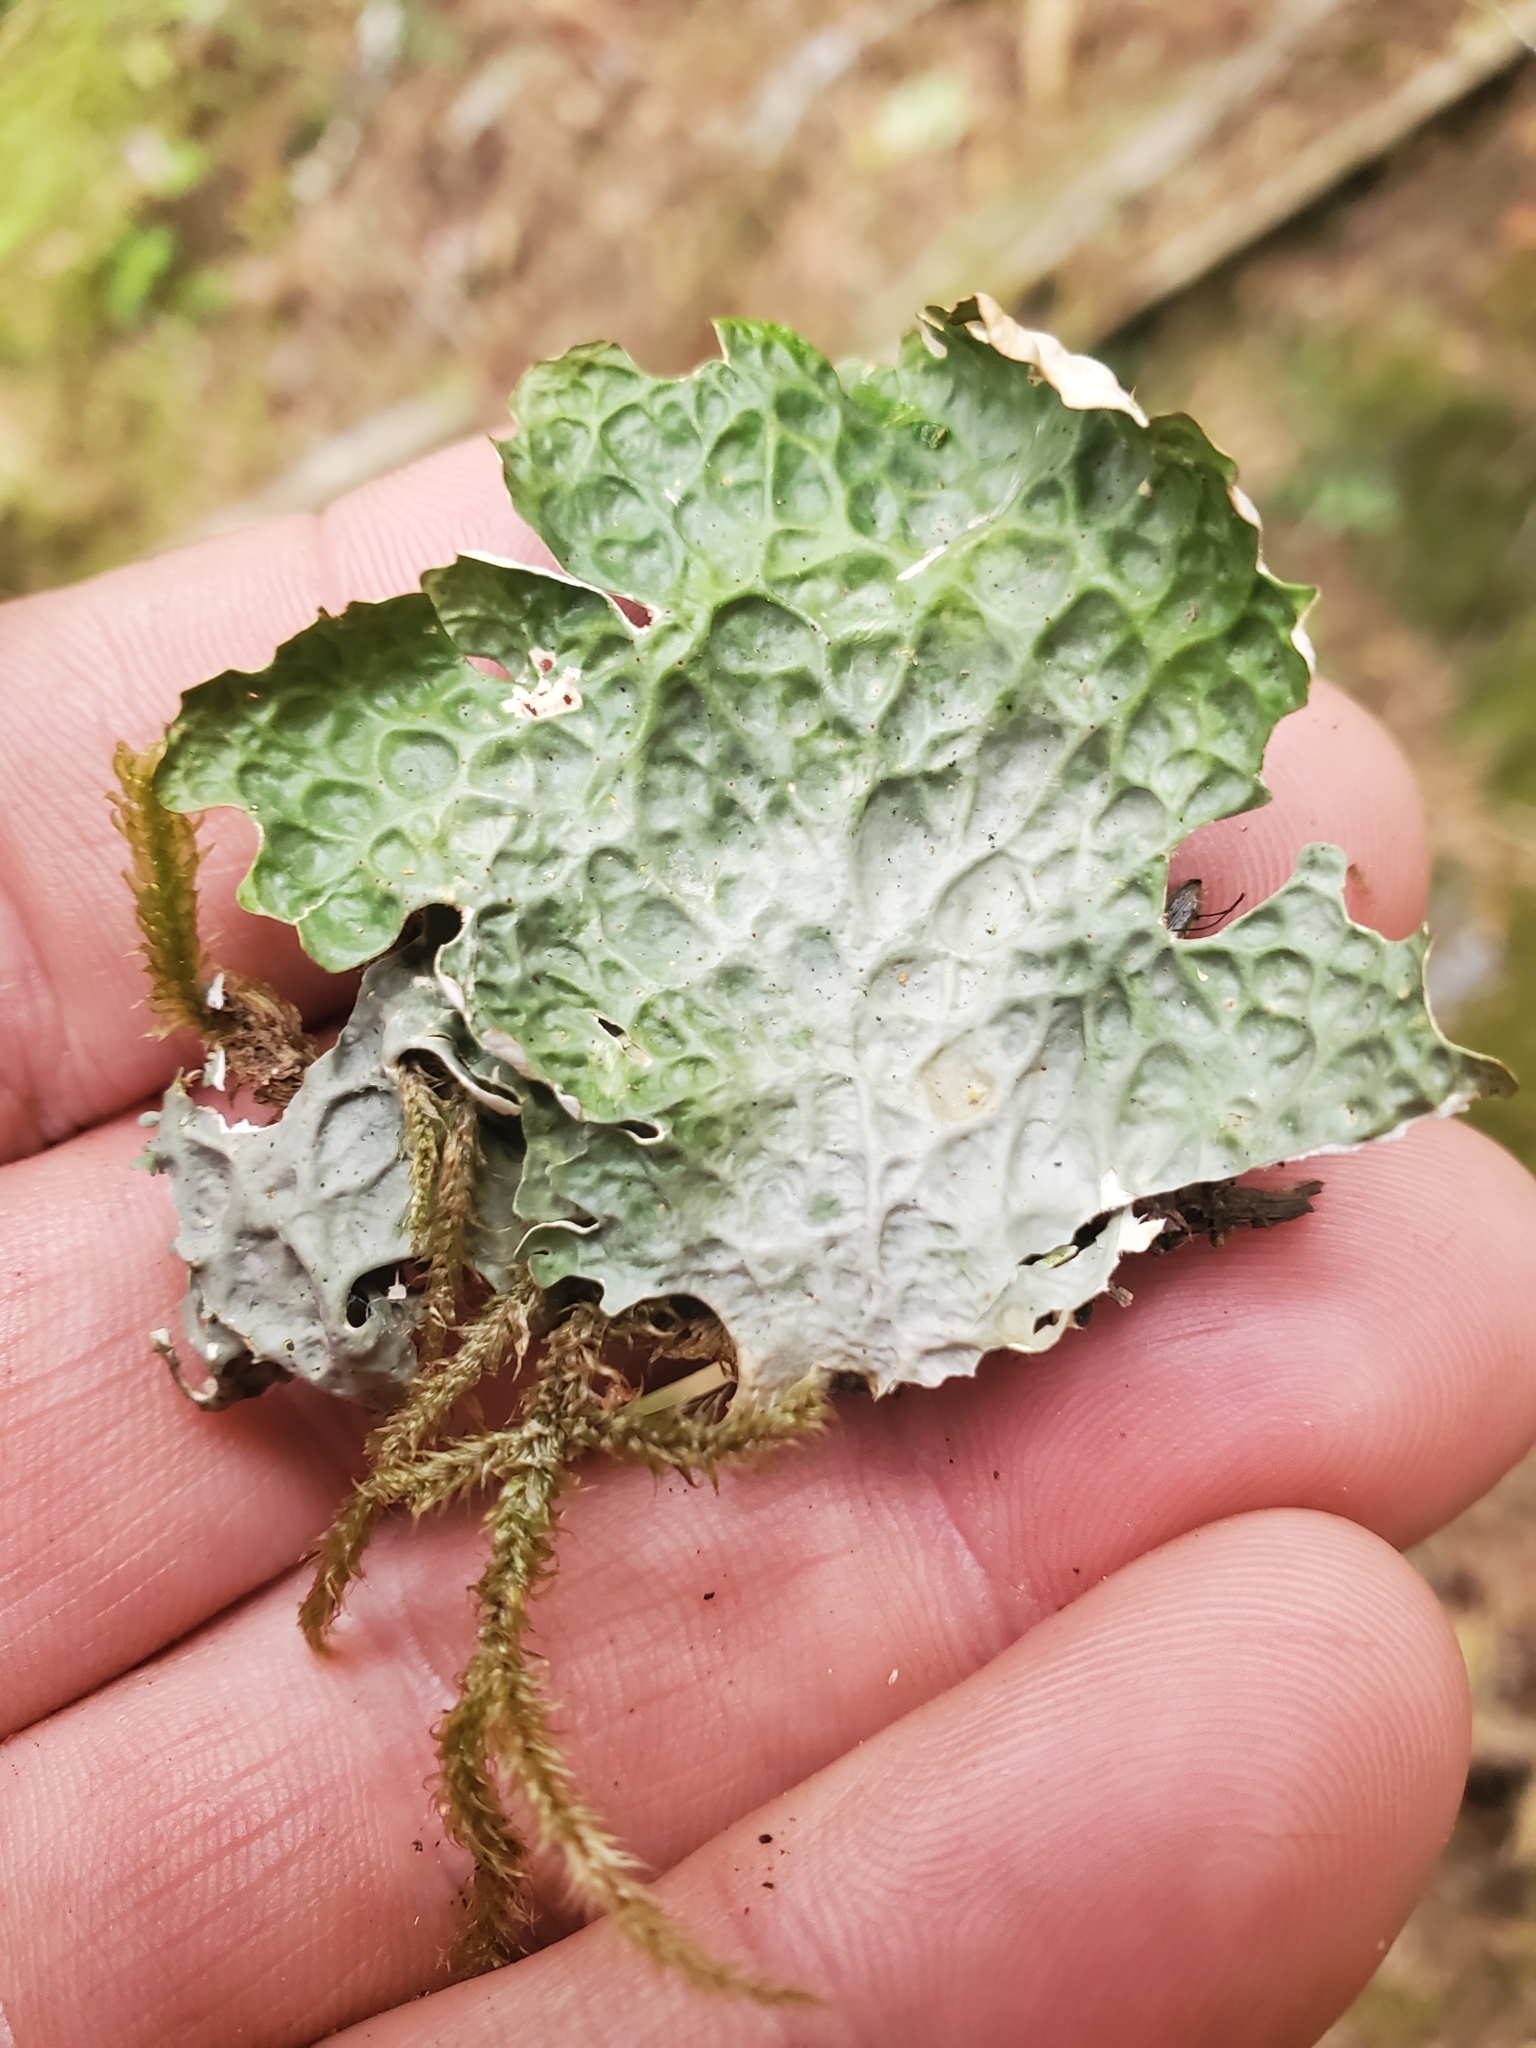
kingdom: Fungi
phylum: Ascomycota
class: Lecanoromycetes
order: Peltigerales
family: Lobariaceae
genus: Lobaria
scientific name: Lobaria oregana
